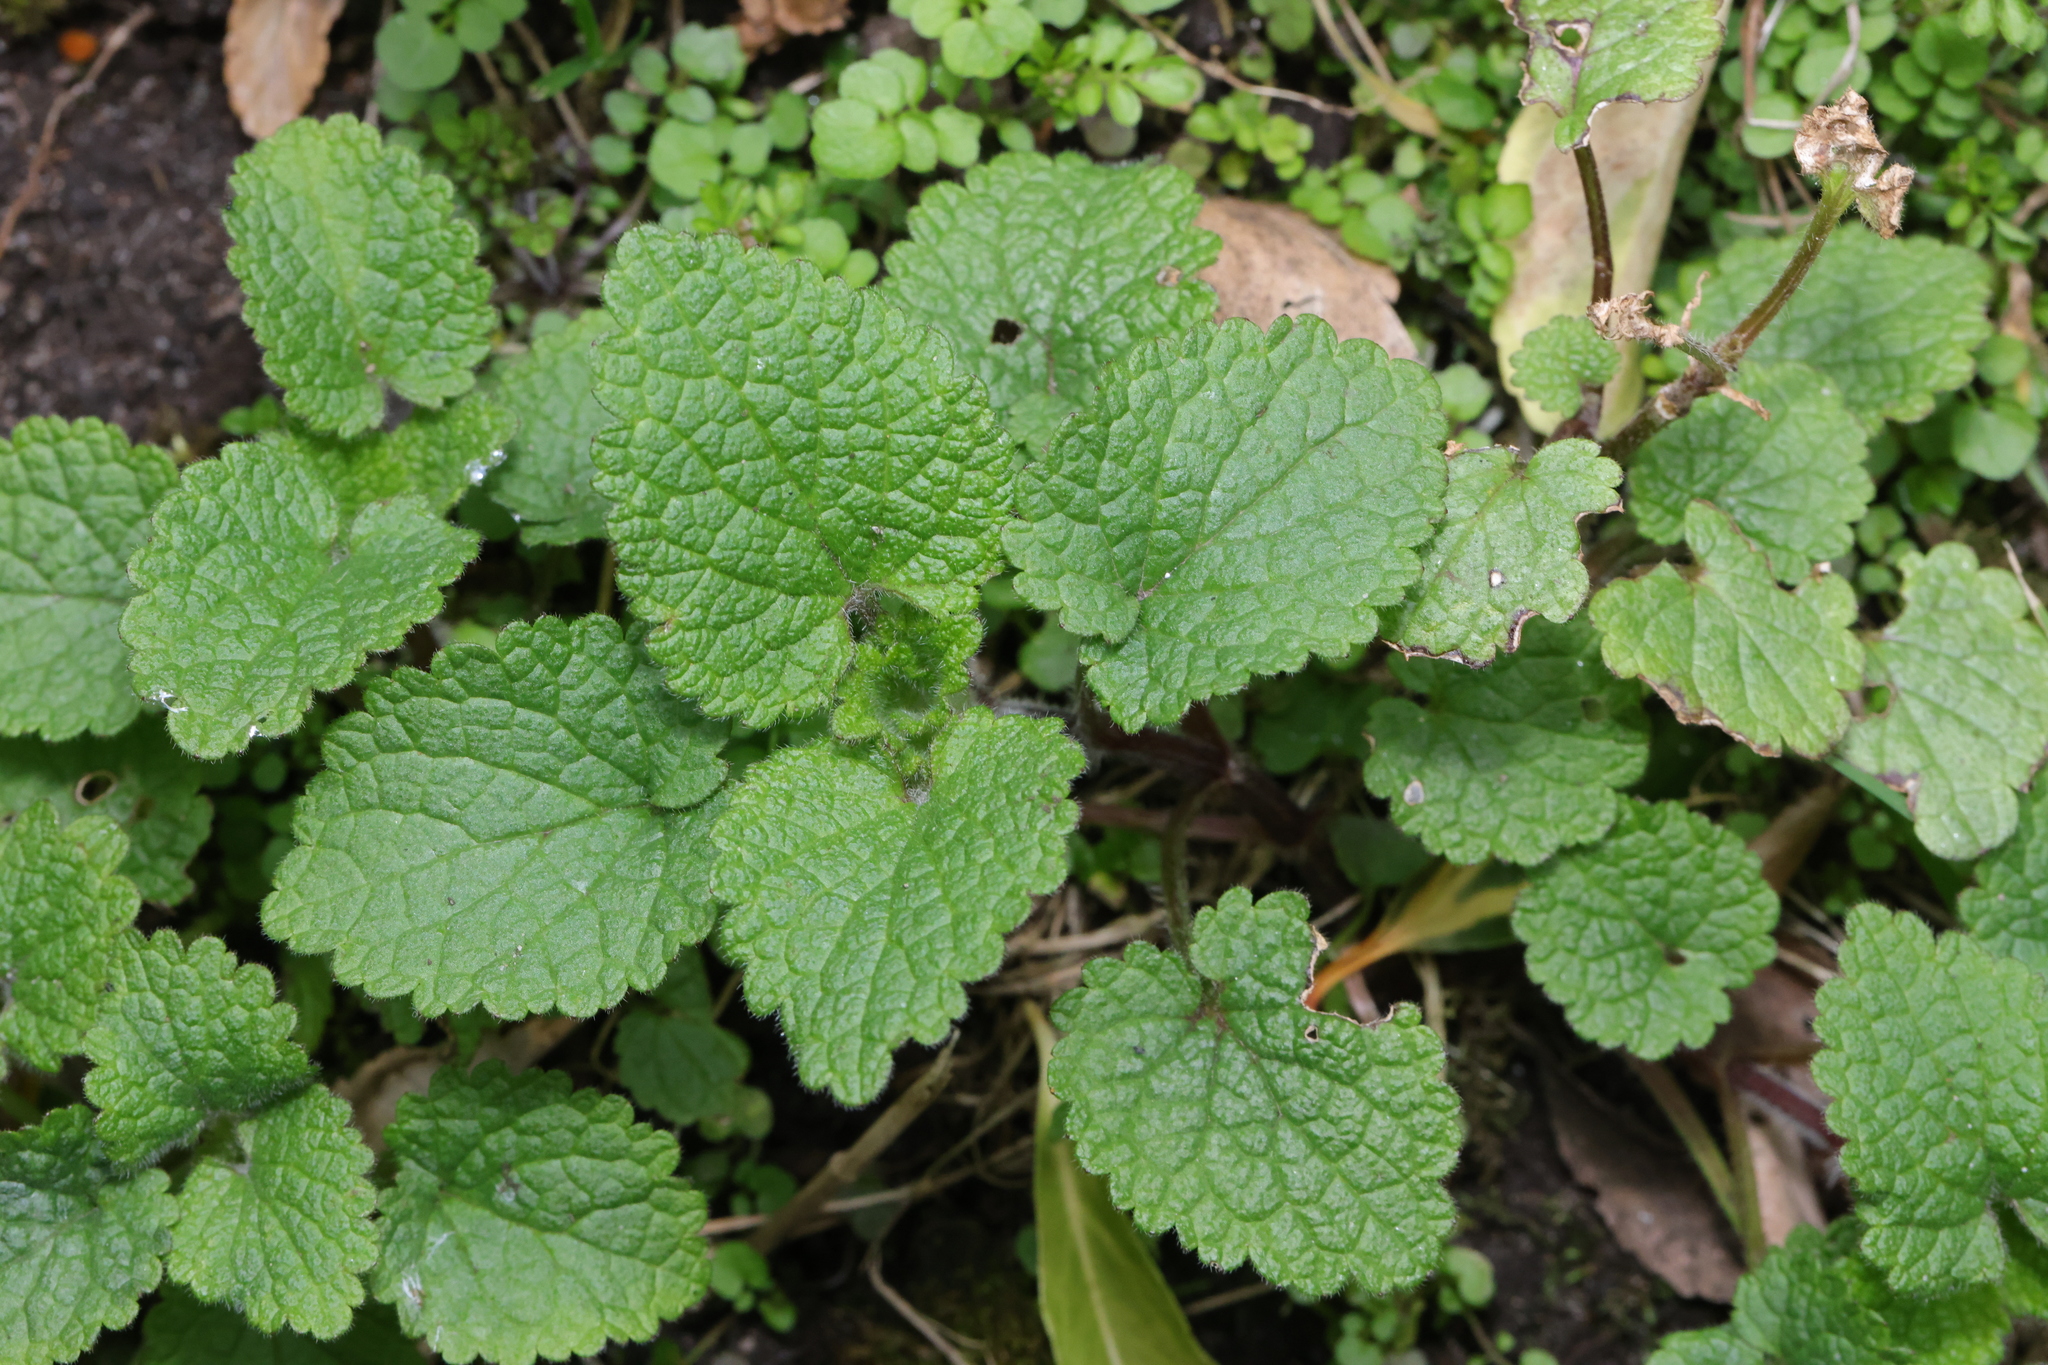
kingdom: Plantae
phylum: Tracheophyta
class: Magnoliopsida
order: Lamiales
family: Lamiaceae
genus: Melissa
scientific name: Melissa officinalis
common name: Balm
